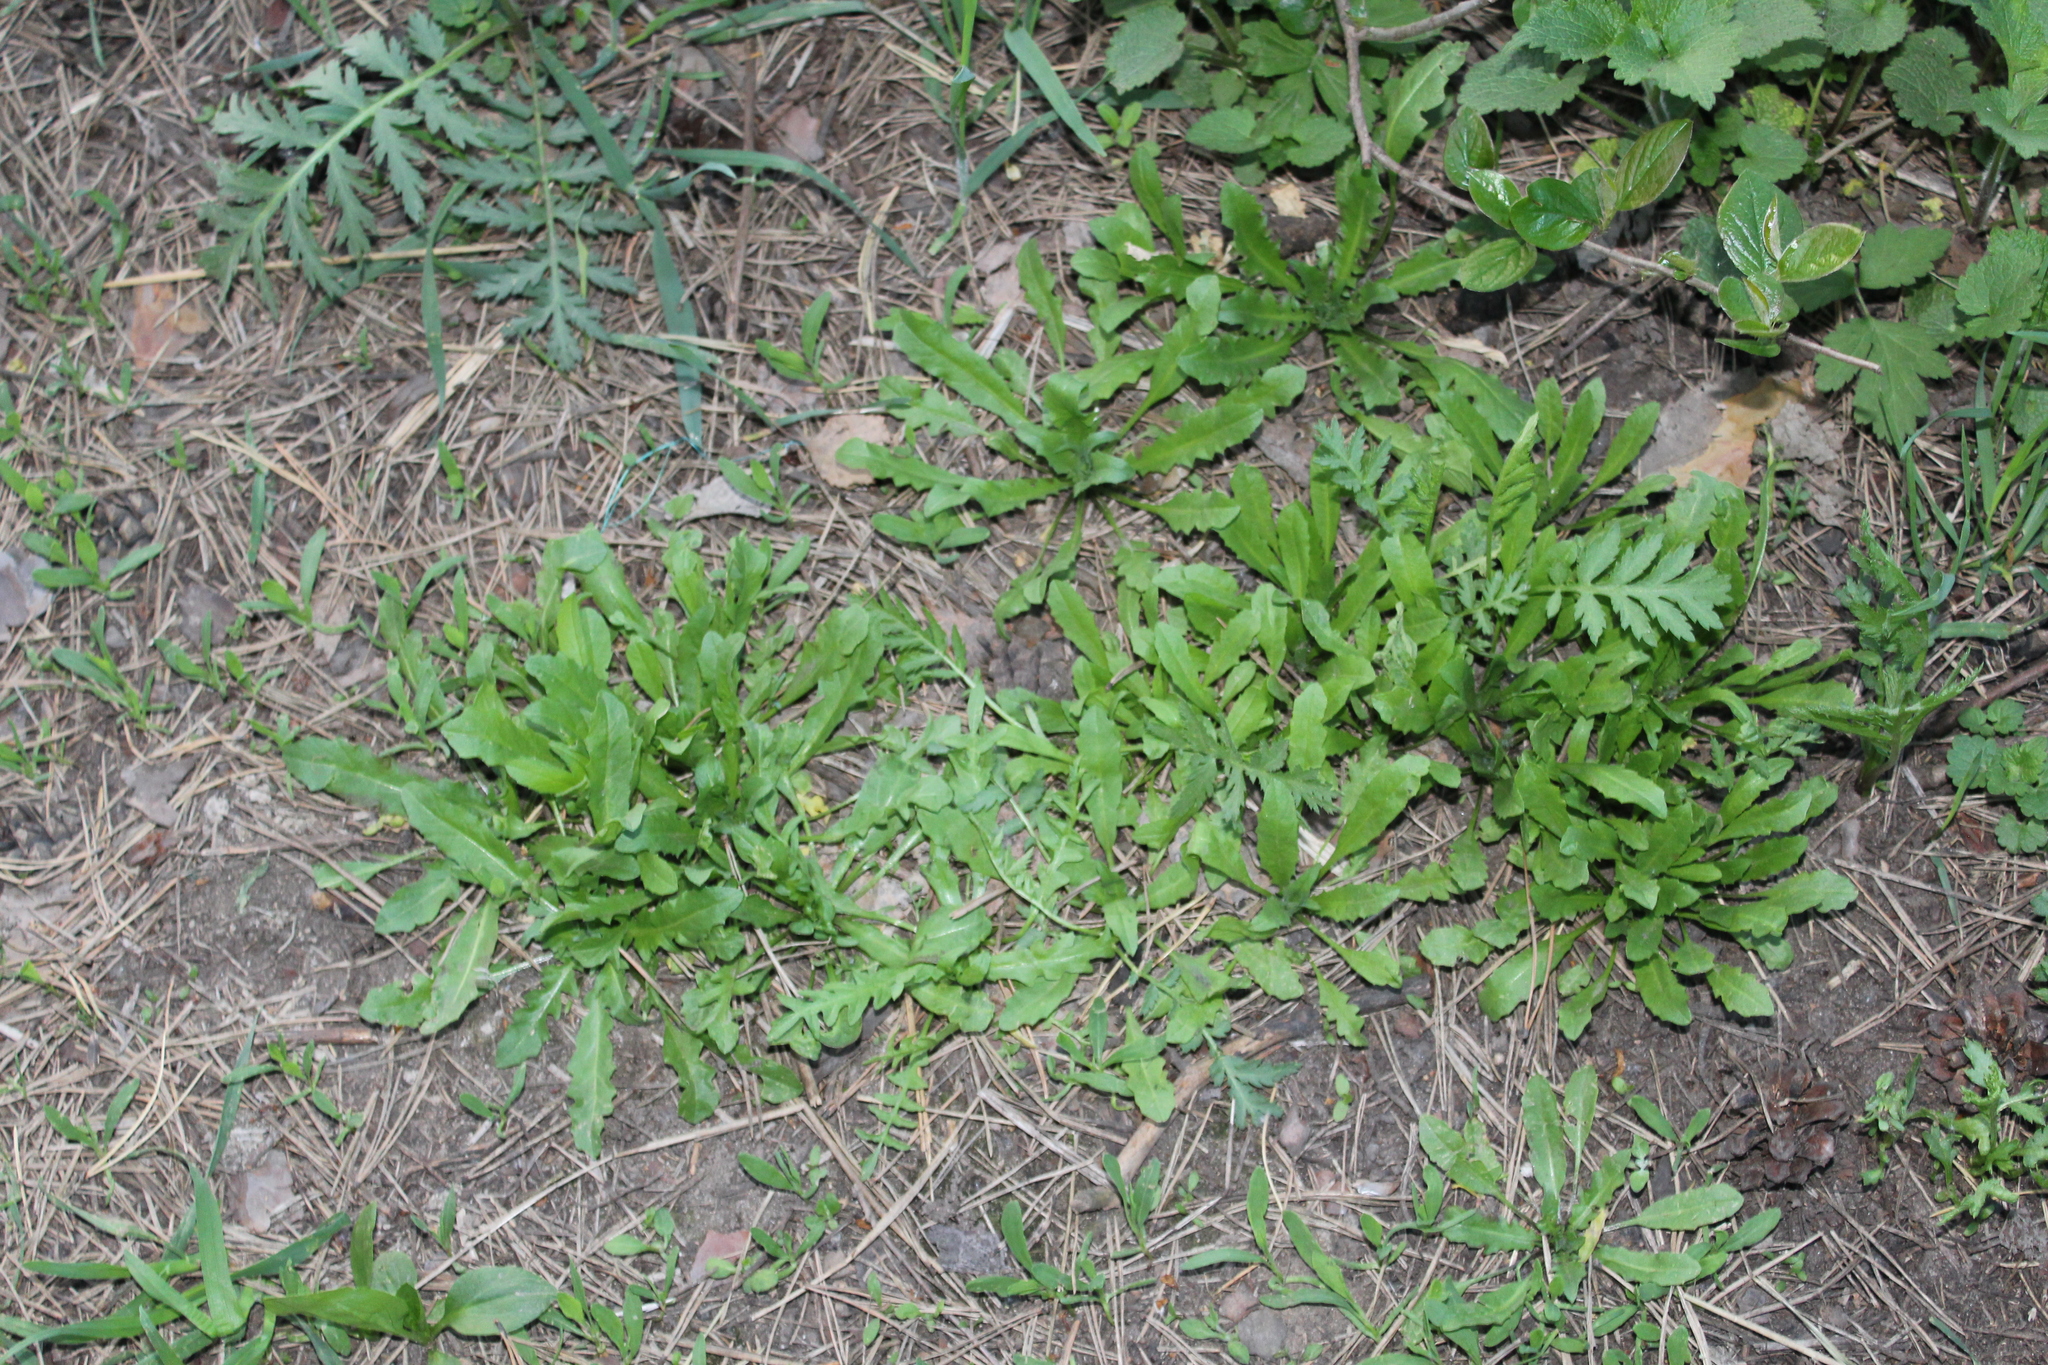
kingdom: Plantae
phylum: Tracheophyta
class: Magnoliopsida
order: Brassicales
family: Brassicaceae
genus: Capsella
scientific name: Capsella bursa-pastoris
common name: Shepherd's purse
